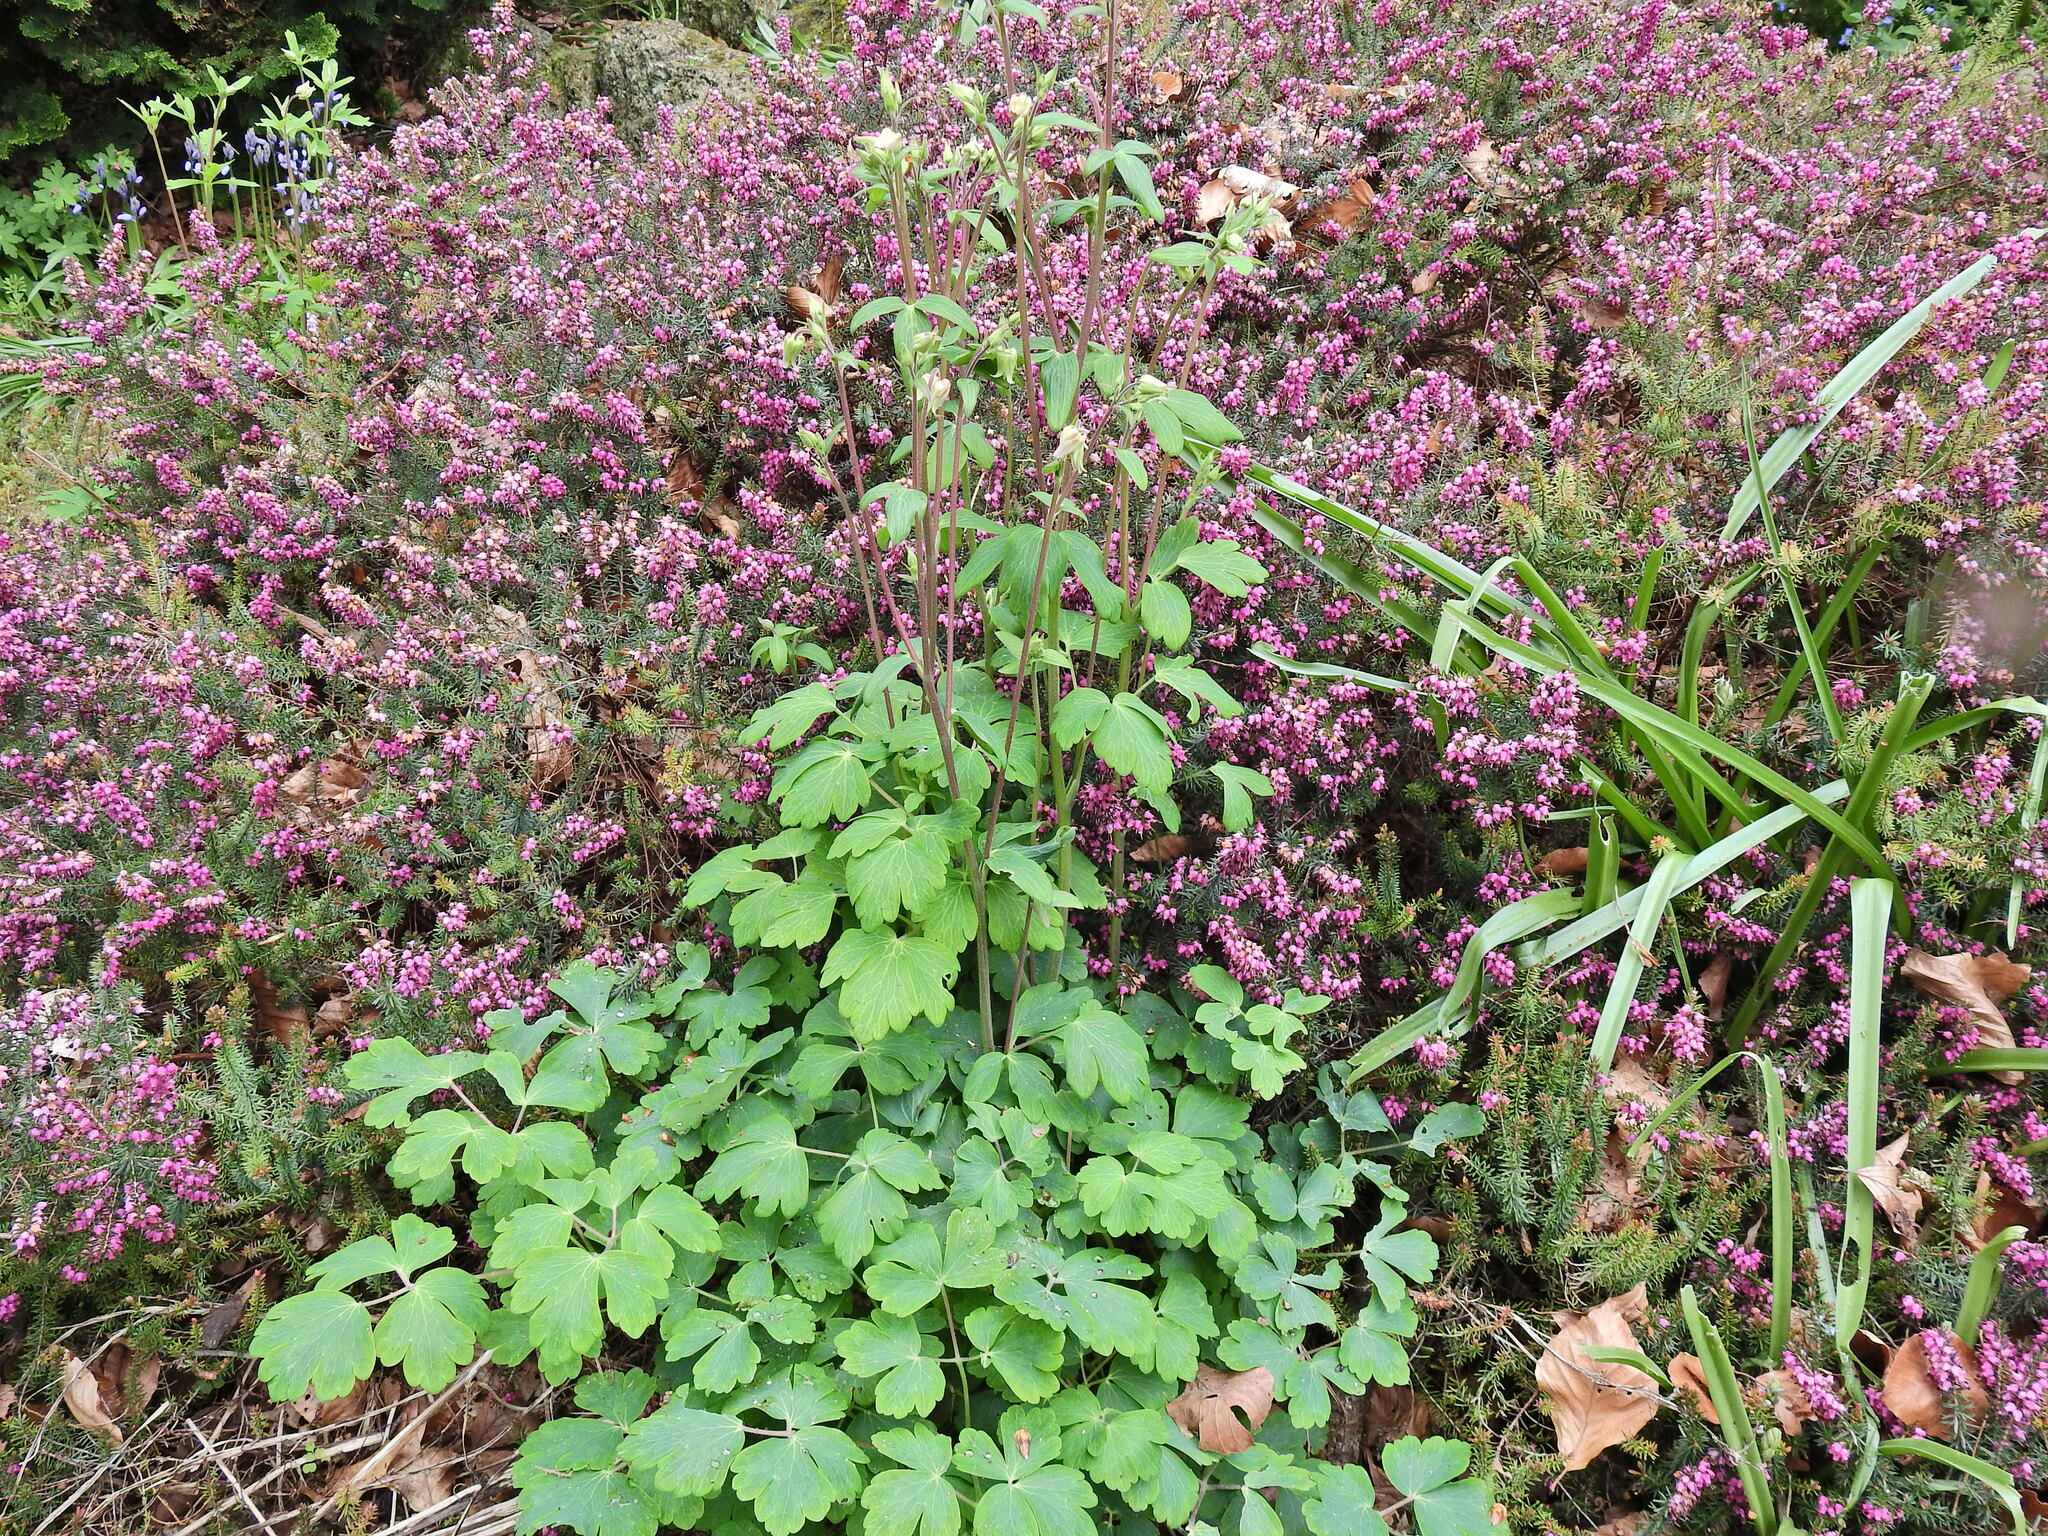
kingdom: Plantae
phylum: Tracheophyta
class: Magnoliopsida
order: Ranunculales
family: Ranunculaceae
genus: Aquilegia
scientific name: Aquilegia vulgaris
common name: Columbine
